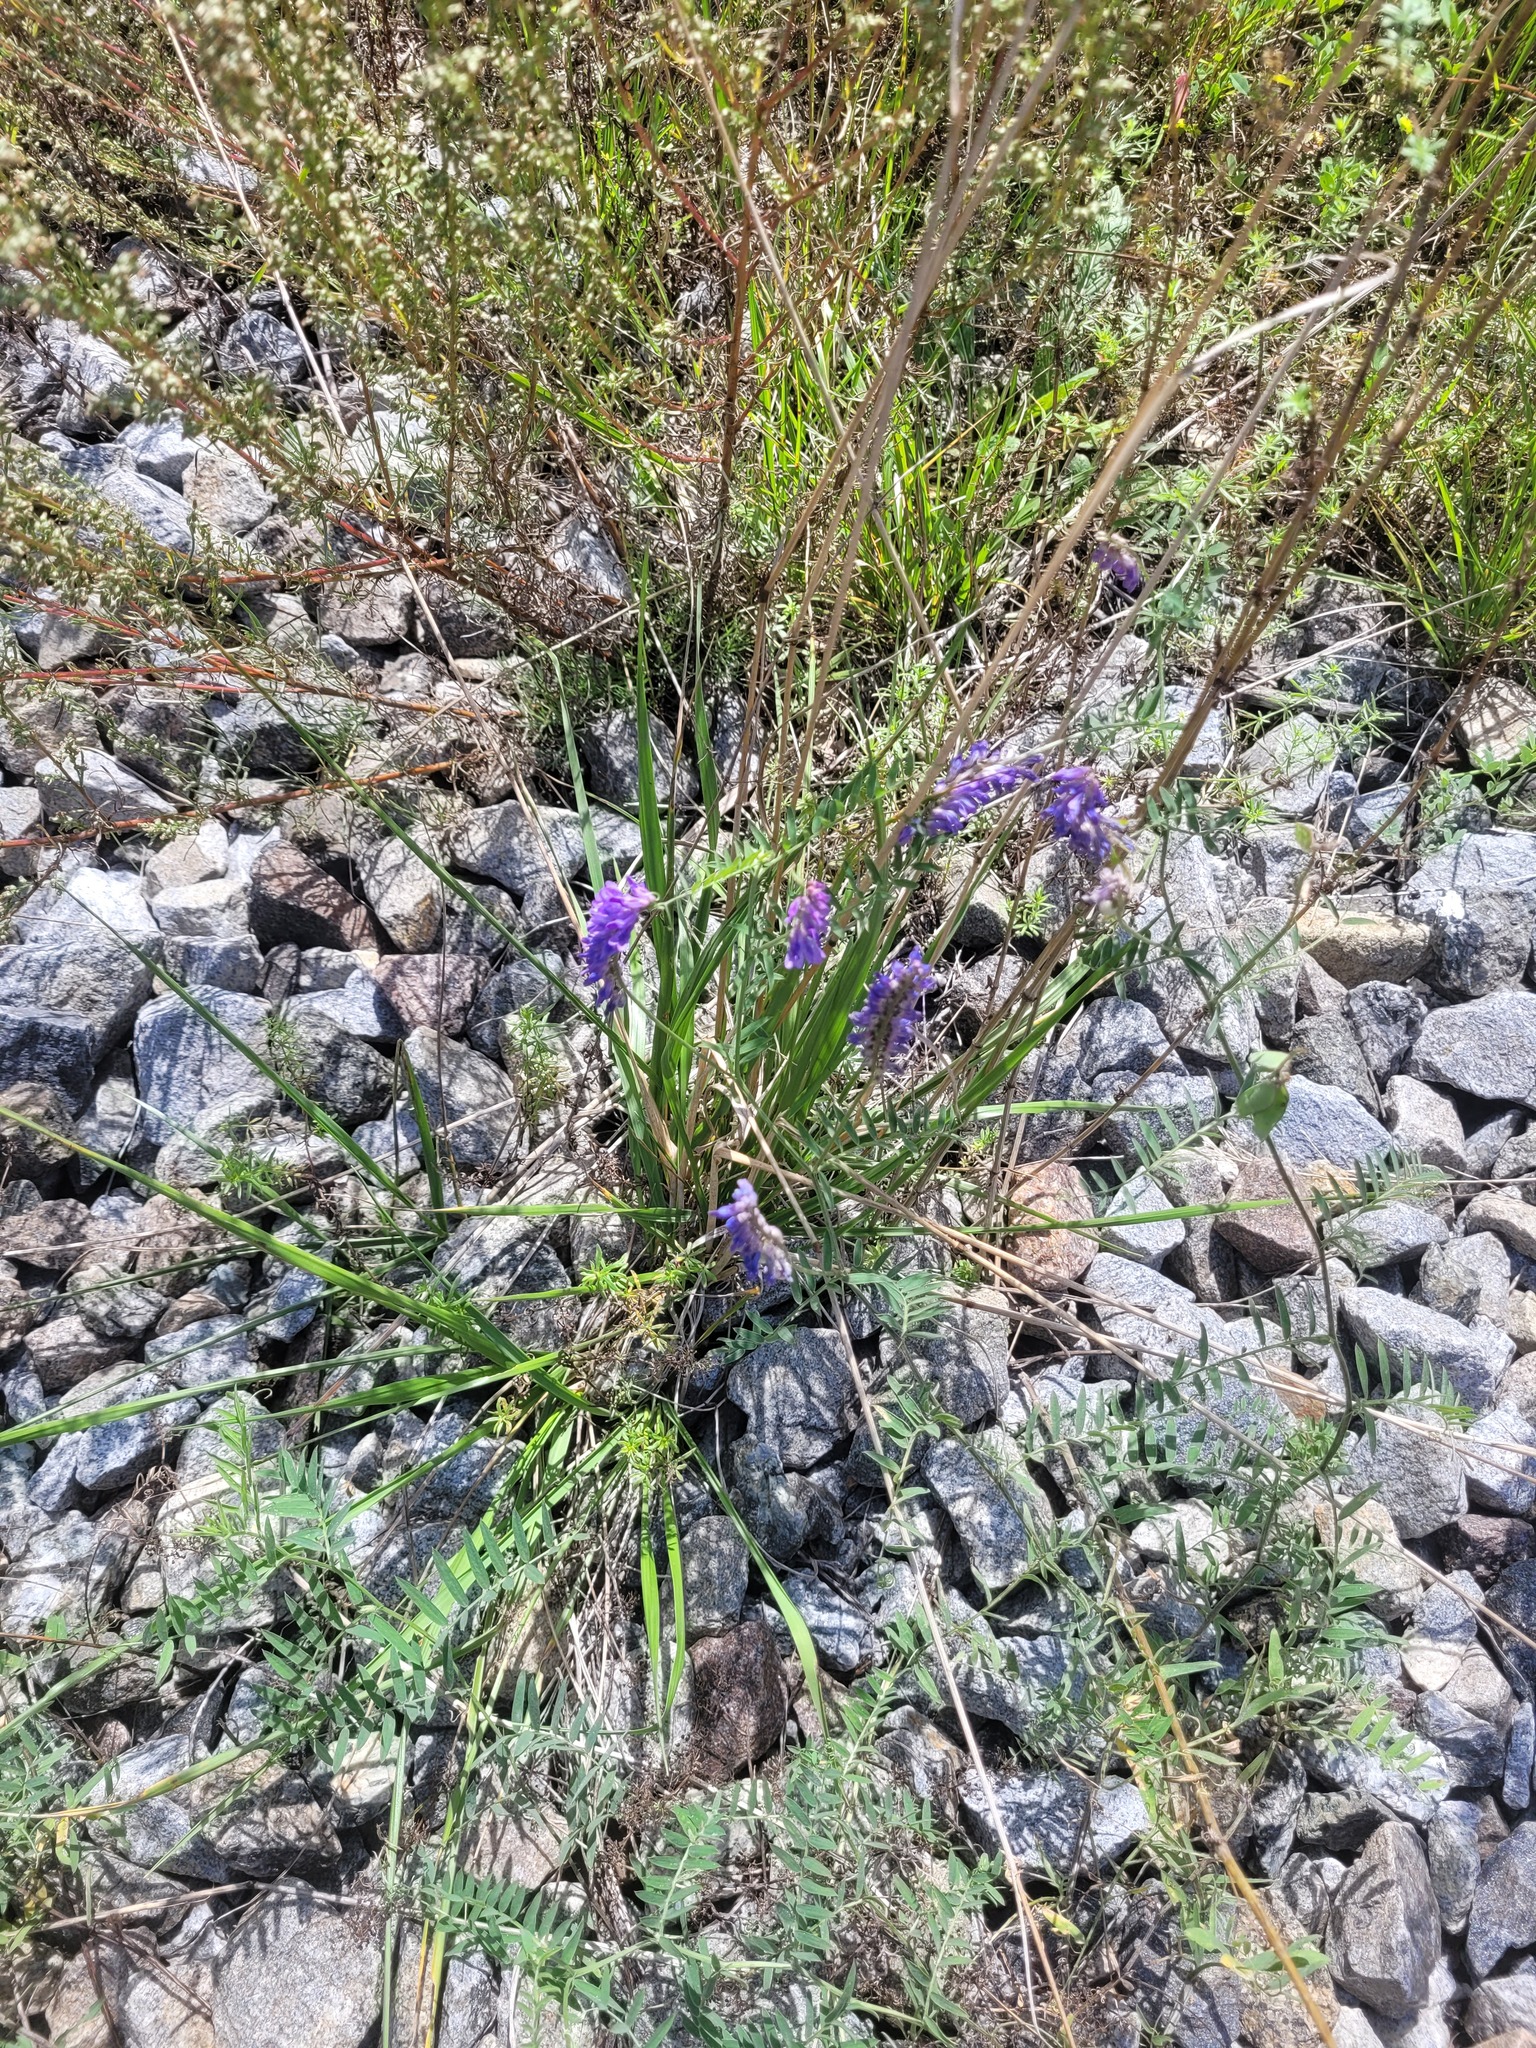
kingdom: Plantae
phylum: Tracheophyta
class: Magnoliopsida
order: Fabales
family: Fabaceae
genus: Vicia
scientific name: Vicia cracca
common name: Bird vetch
